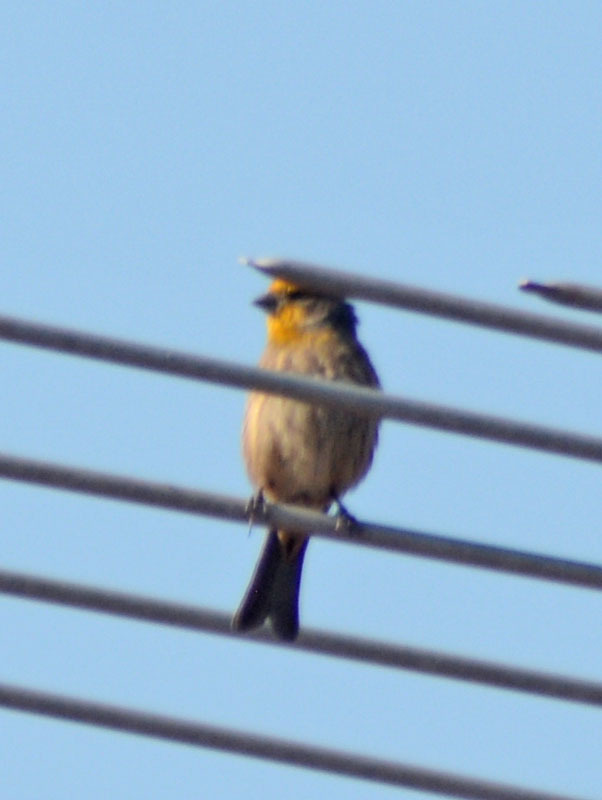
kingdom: Animalia
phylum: Chordata
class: Aves
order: Passeriformes
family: Fringillidae
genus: Haemorhous
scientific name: Haemorhous mexicanus
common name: House finch
